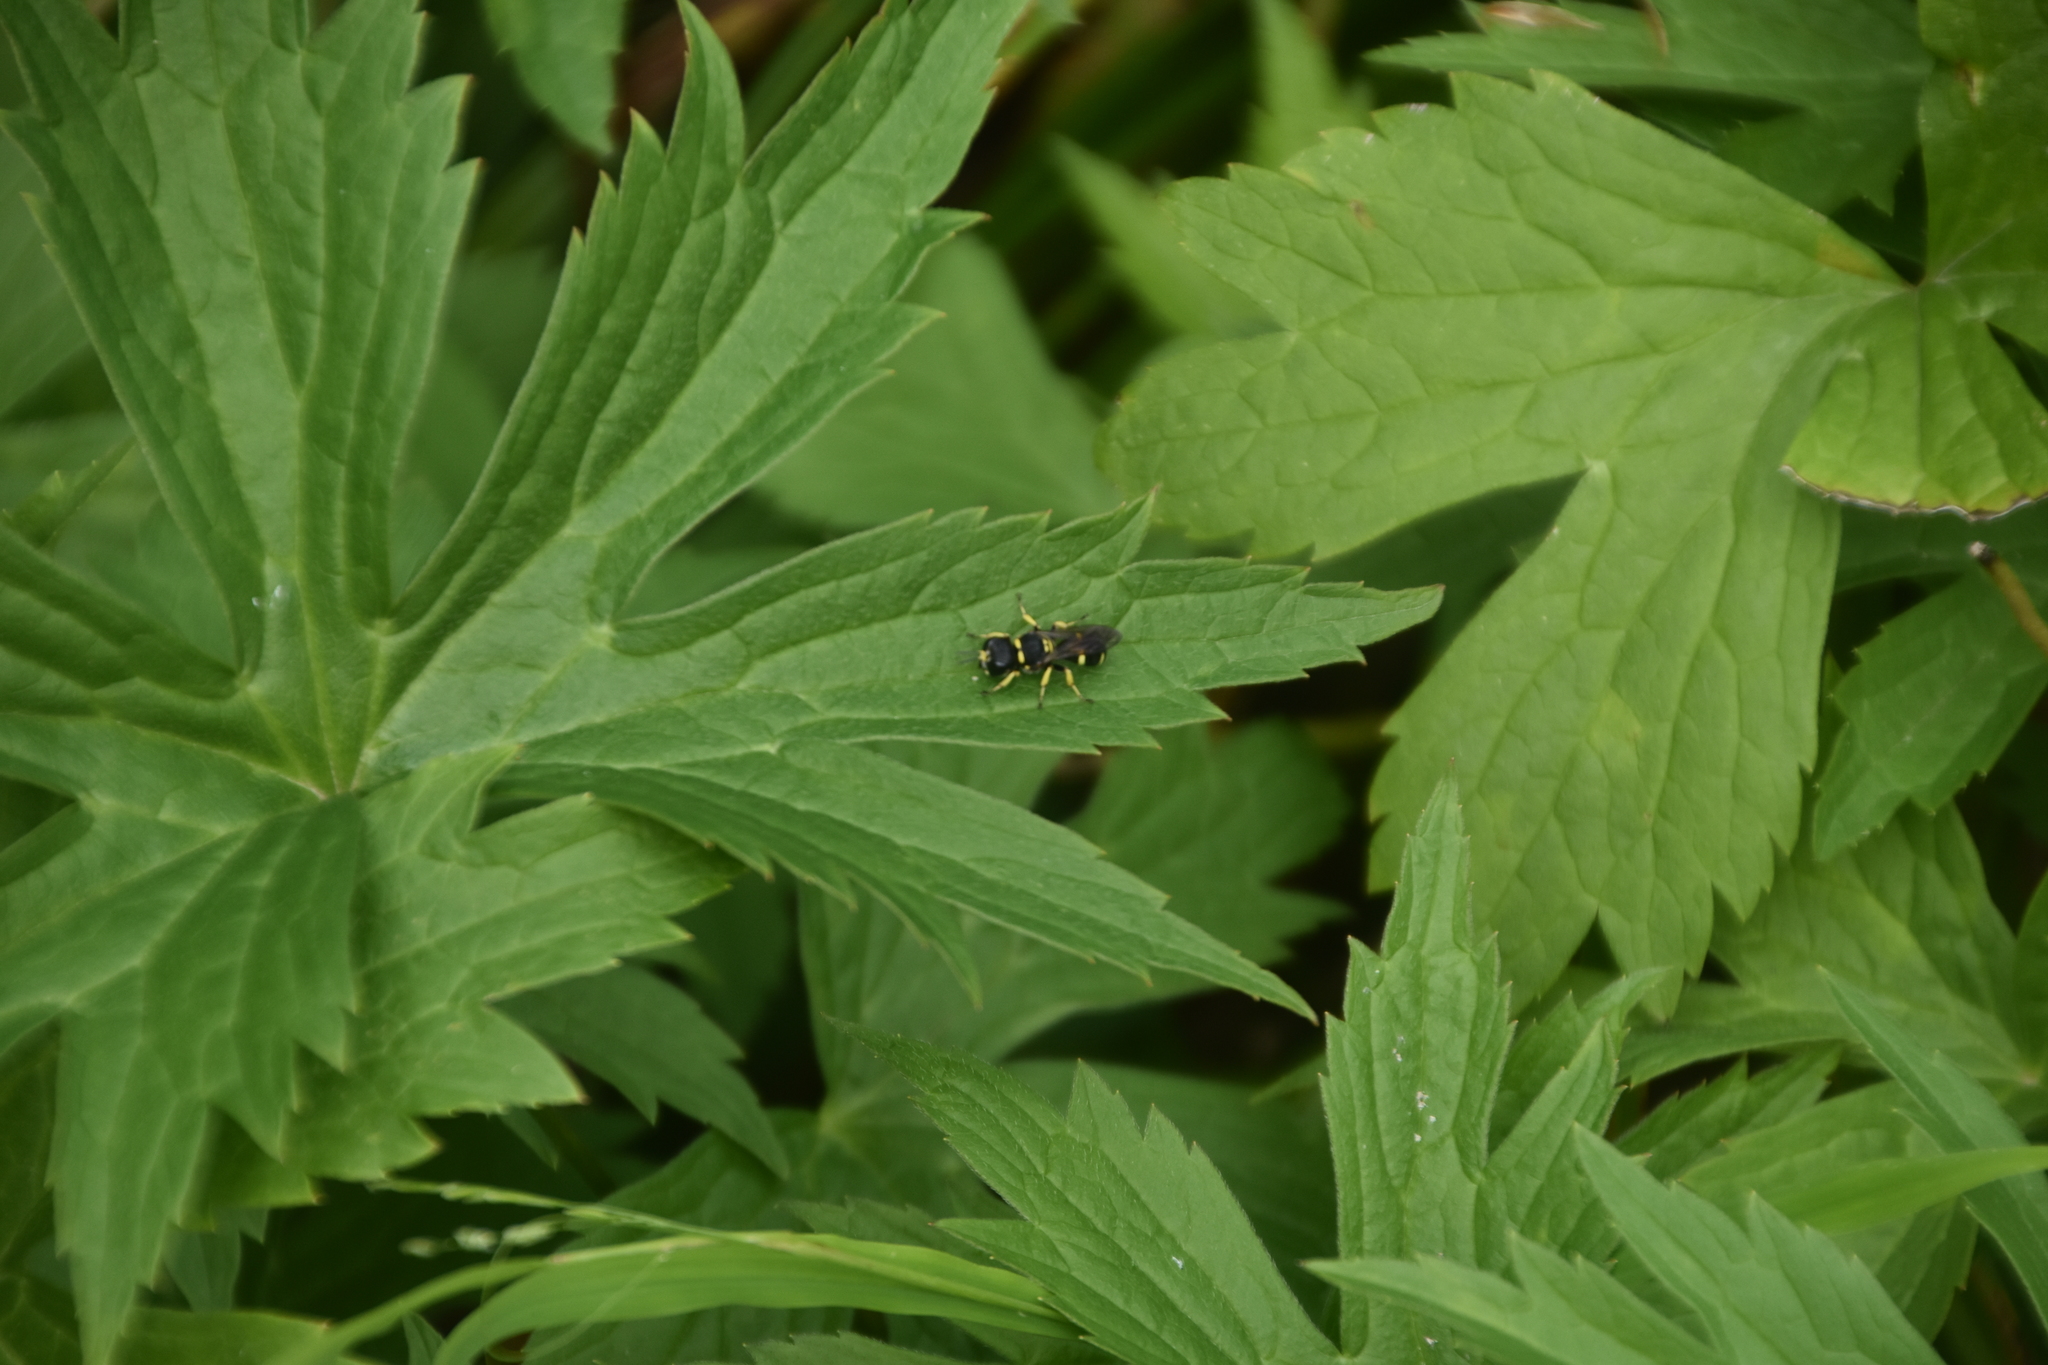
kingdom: Animalia
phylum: Arthropoda
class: Insecta
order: Hymenoptera
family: Crabronidae
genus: Ectemnius
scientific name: Ectemnius continuus
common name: Common ectemnius
